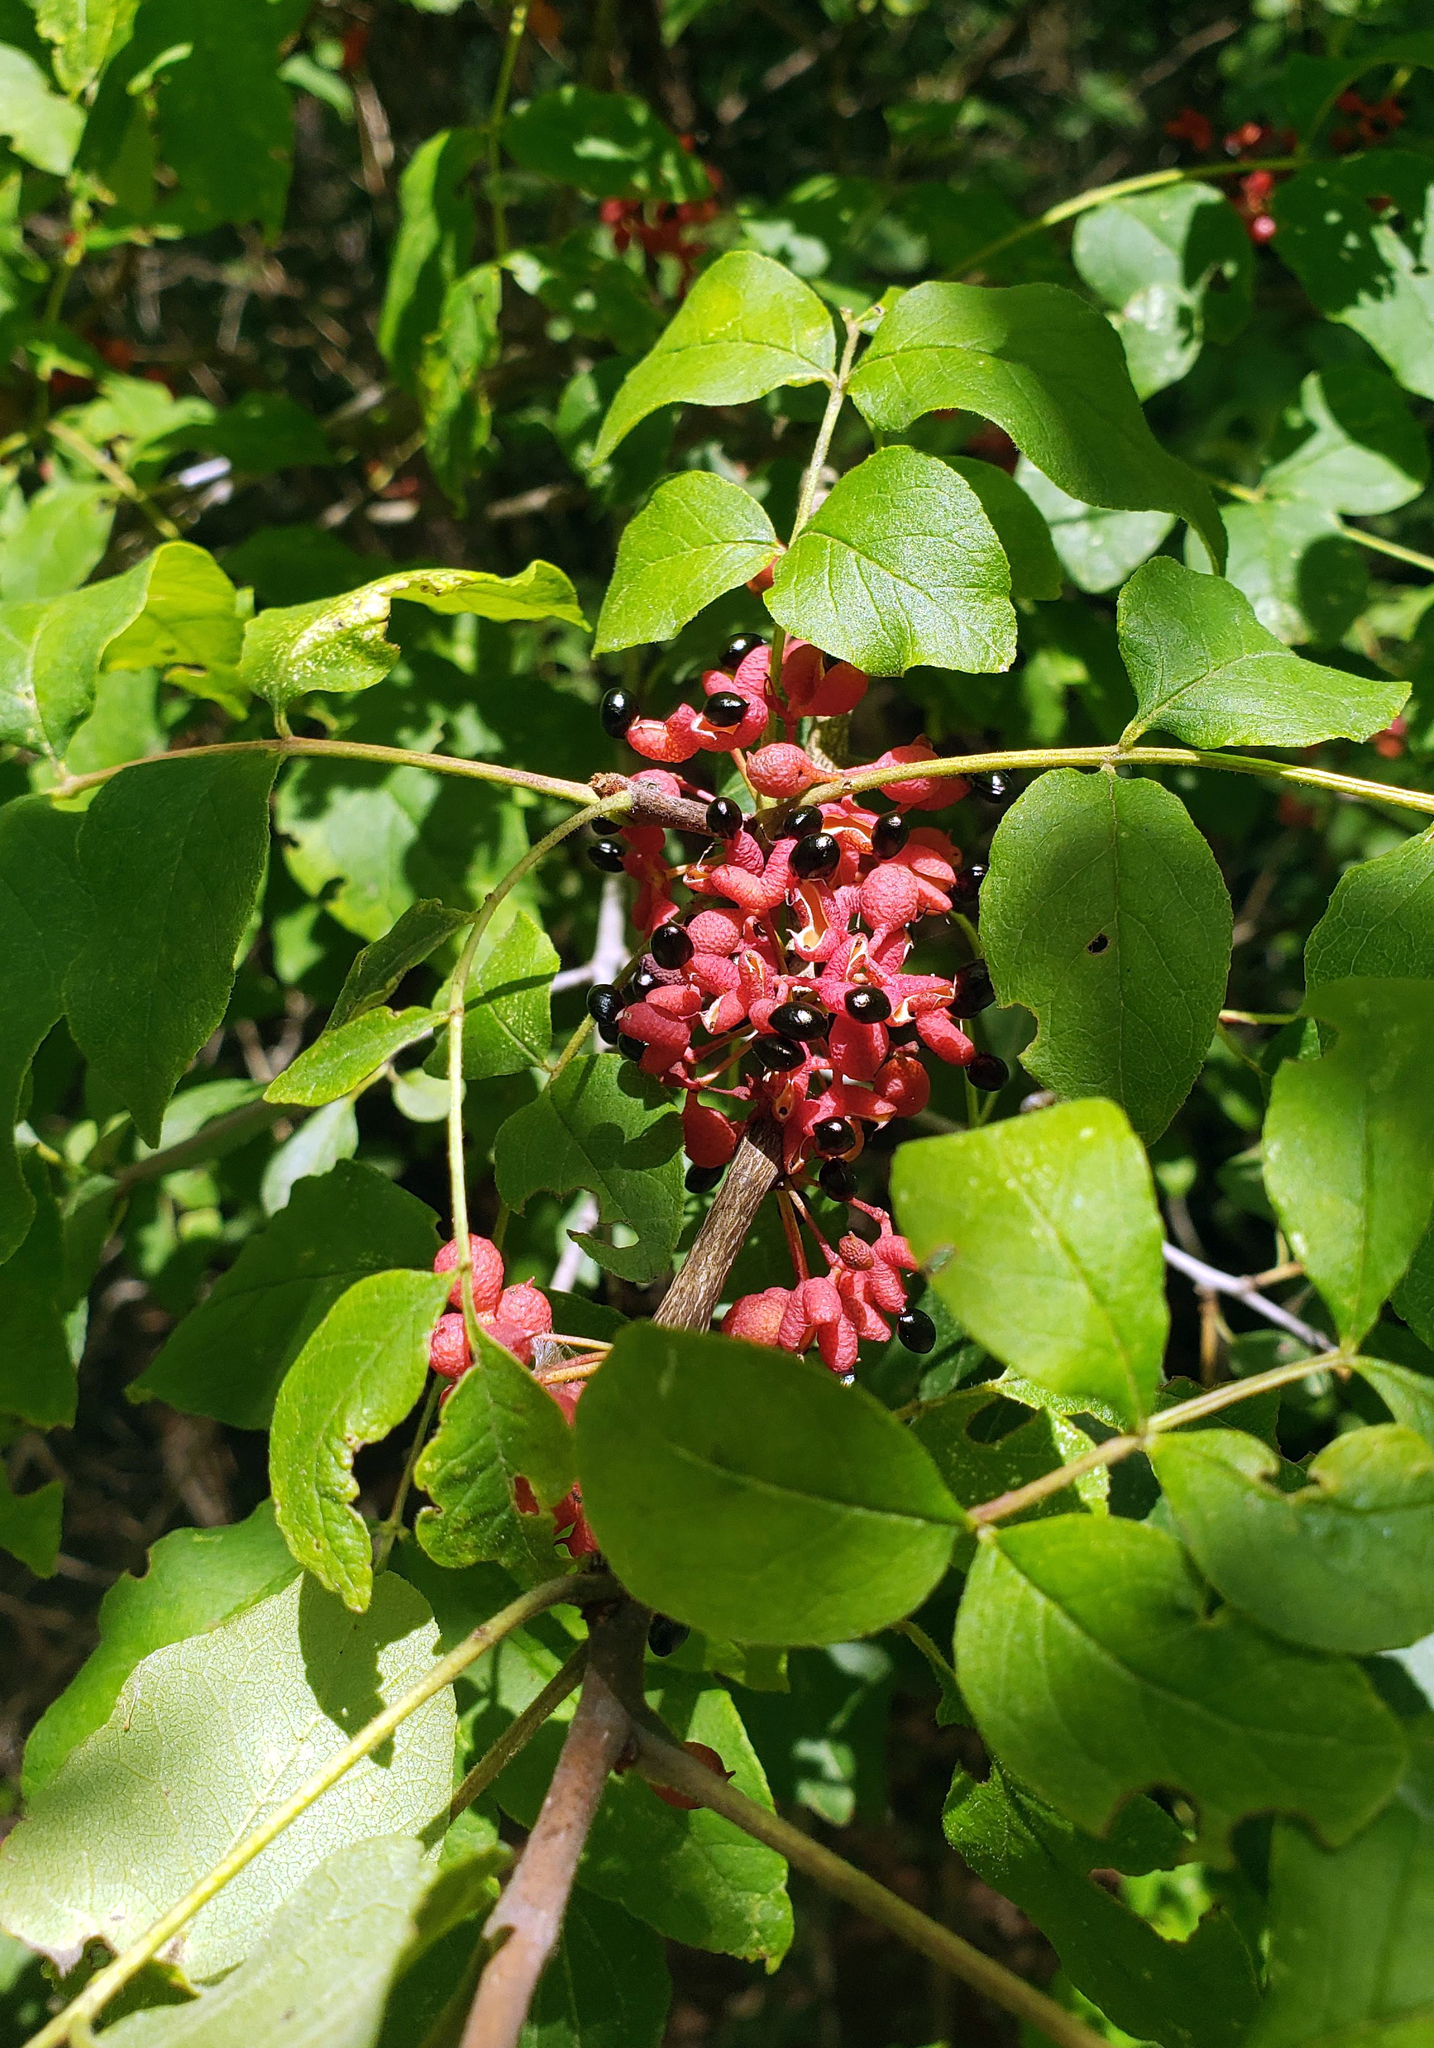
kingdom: Plantae
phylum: Tracheophyta
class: Magnoliopsida
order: Sapindales
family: Rutaceae
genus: Zanthoxylum
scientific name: Zanthoxylum americanum
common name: Northern prickly-ash
